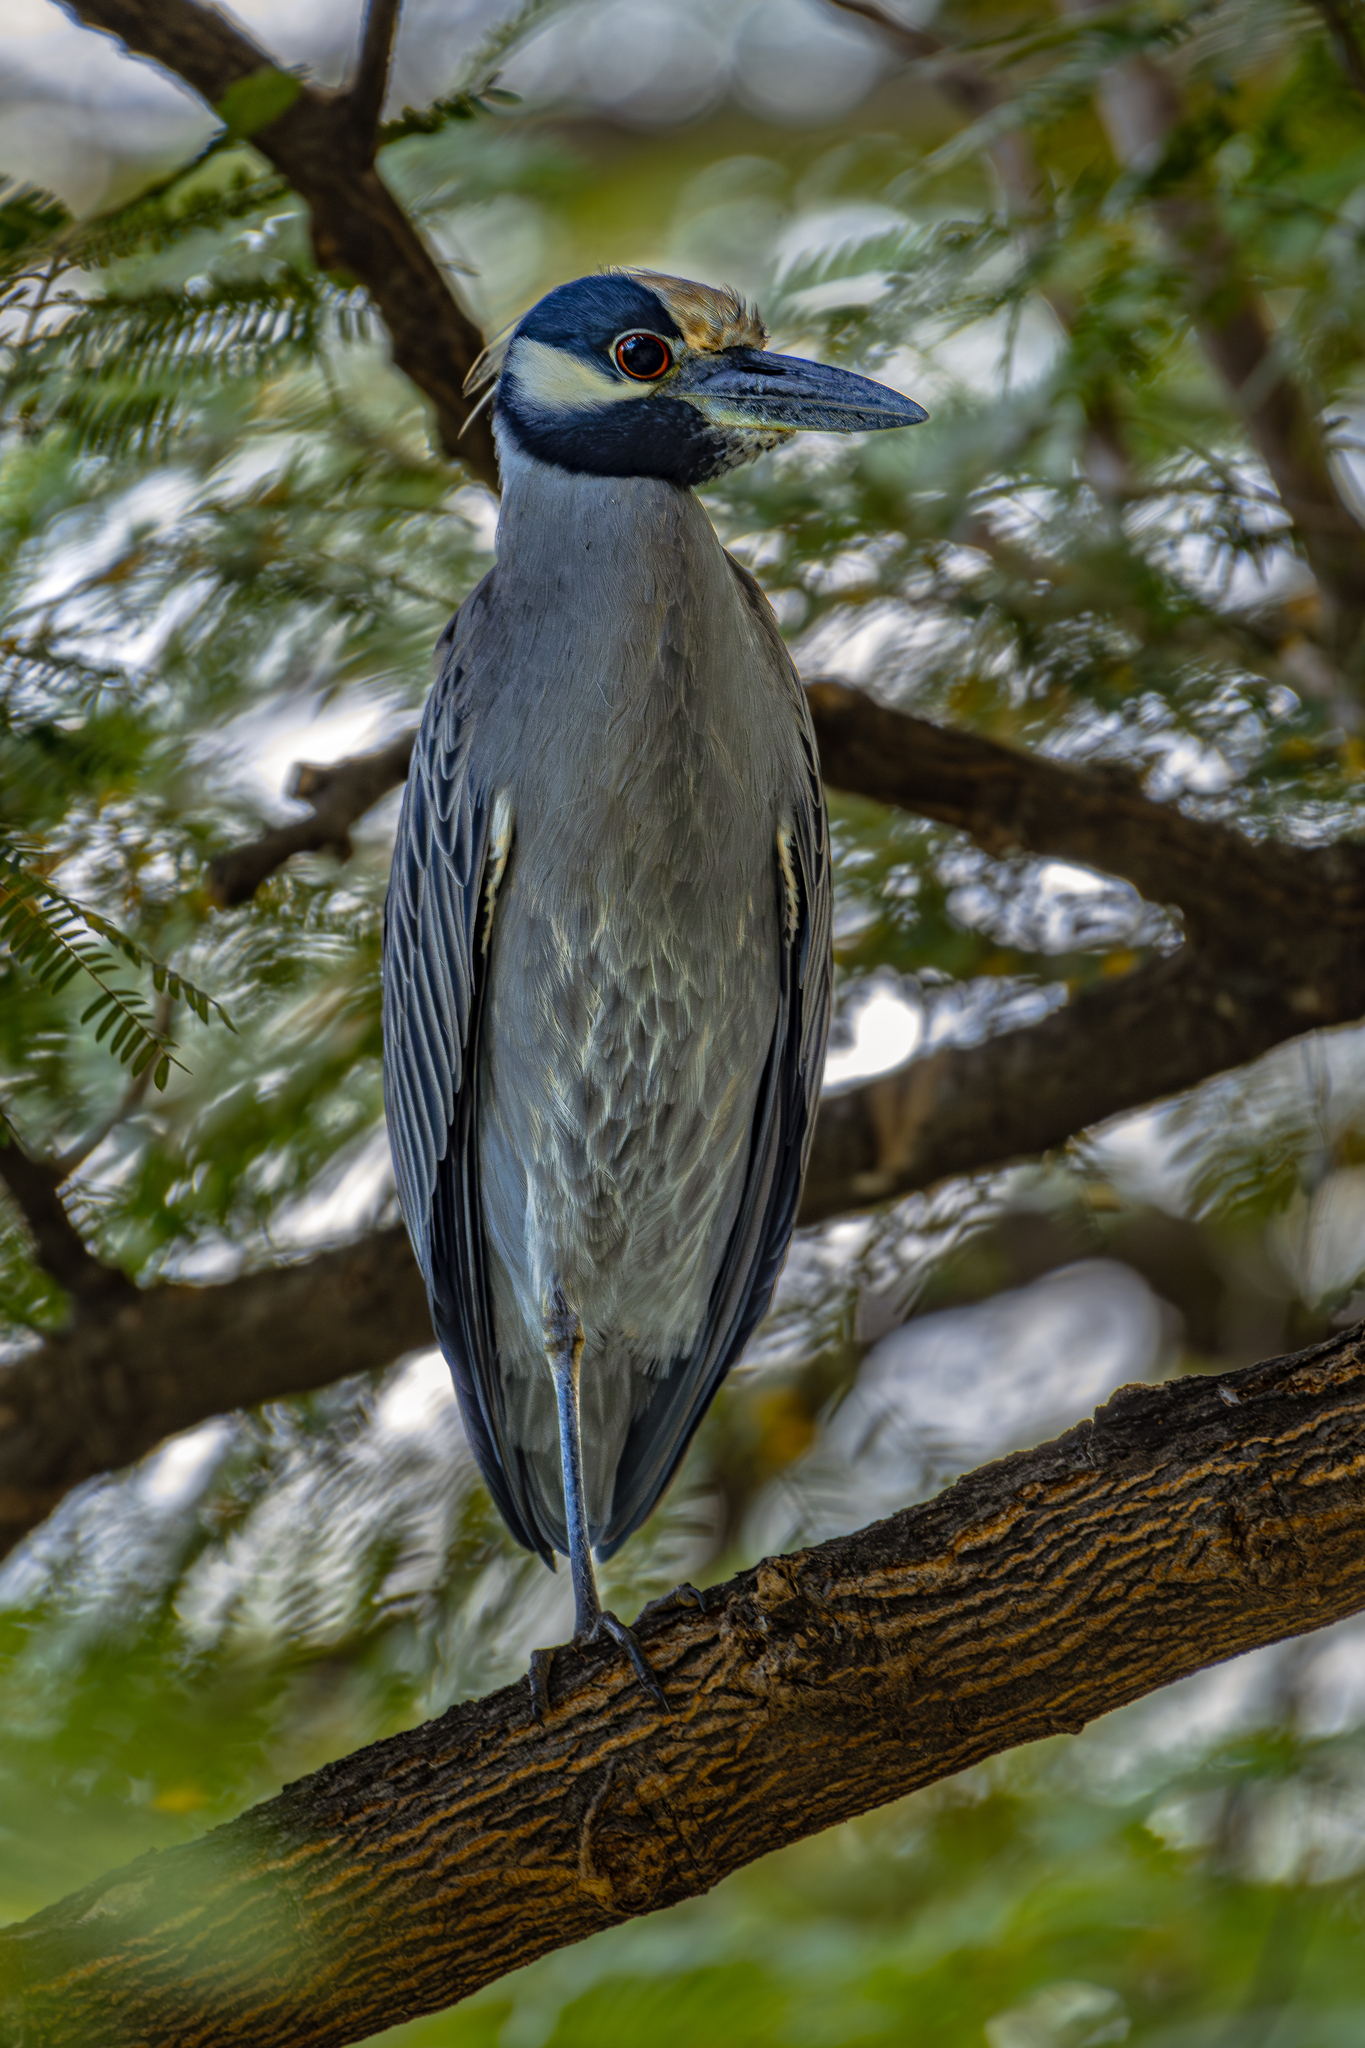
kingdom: Animalia
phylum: Chordata
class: Aves
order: Pelecaniformes
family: Ardeidae
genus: Nyctanassa
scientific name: Nyctanassa violacea
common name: Yellow-crowned night heron
